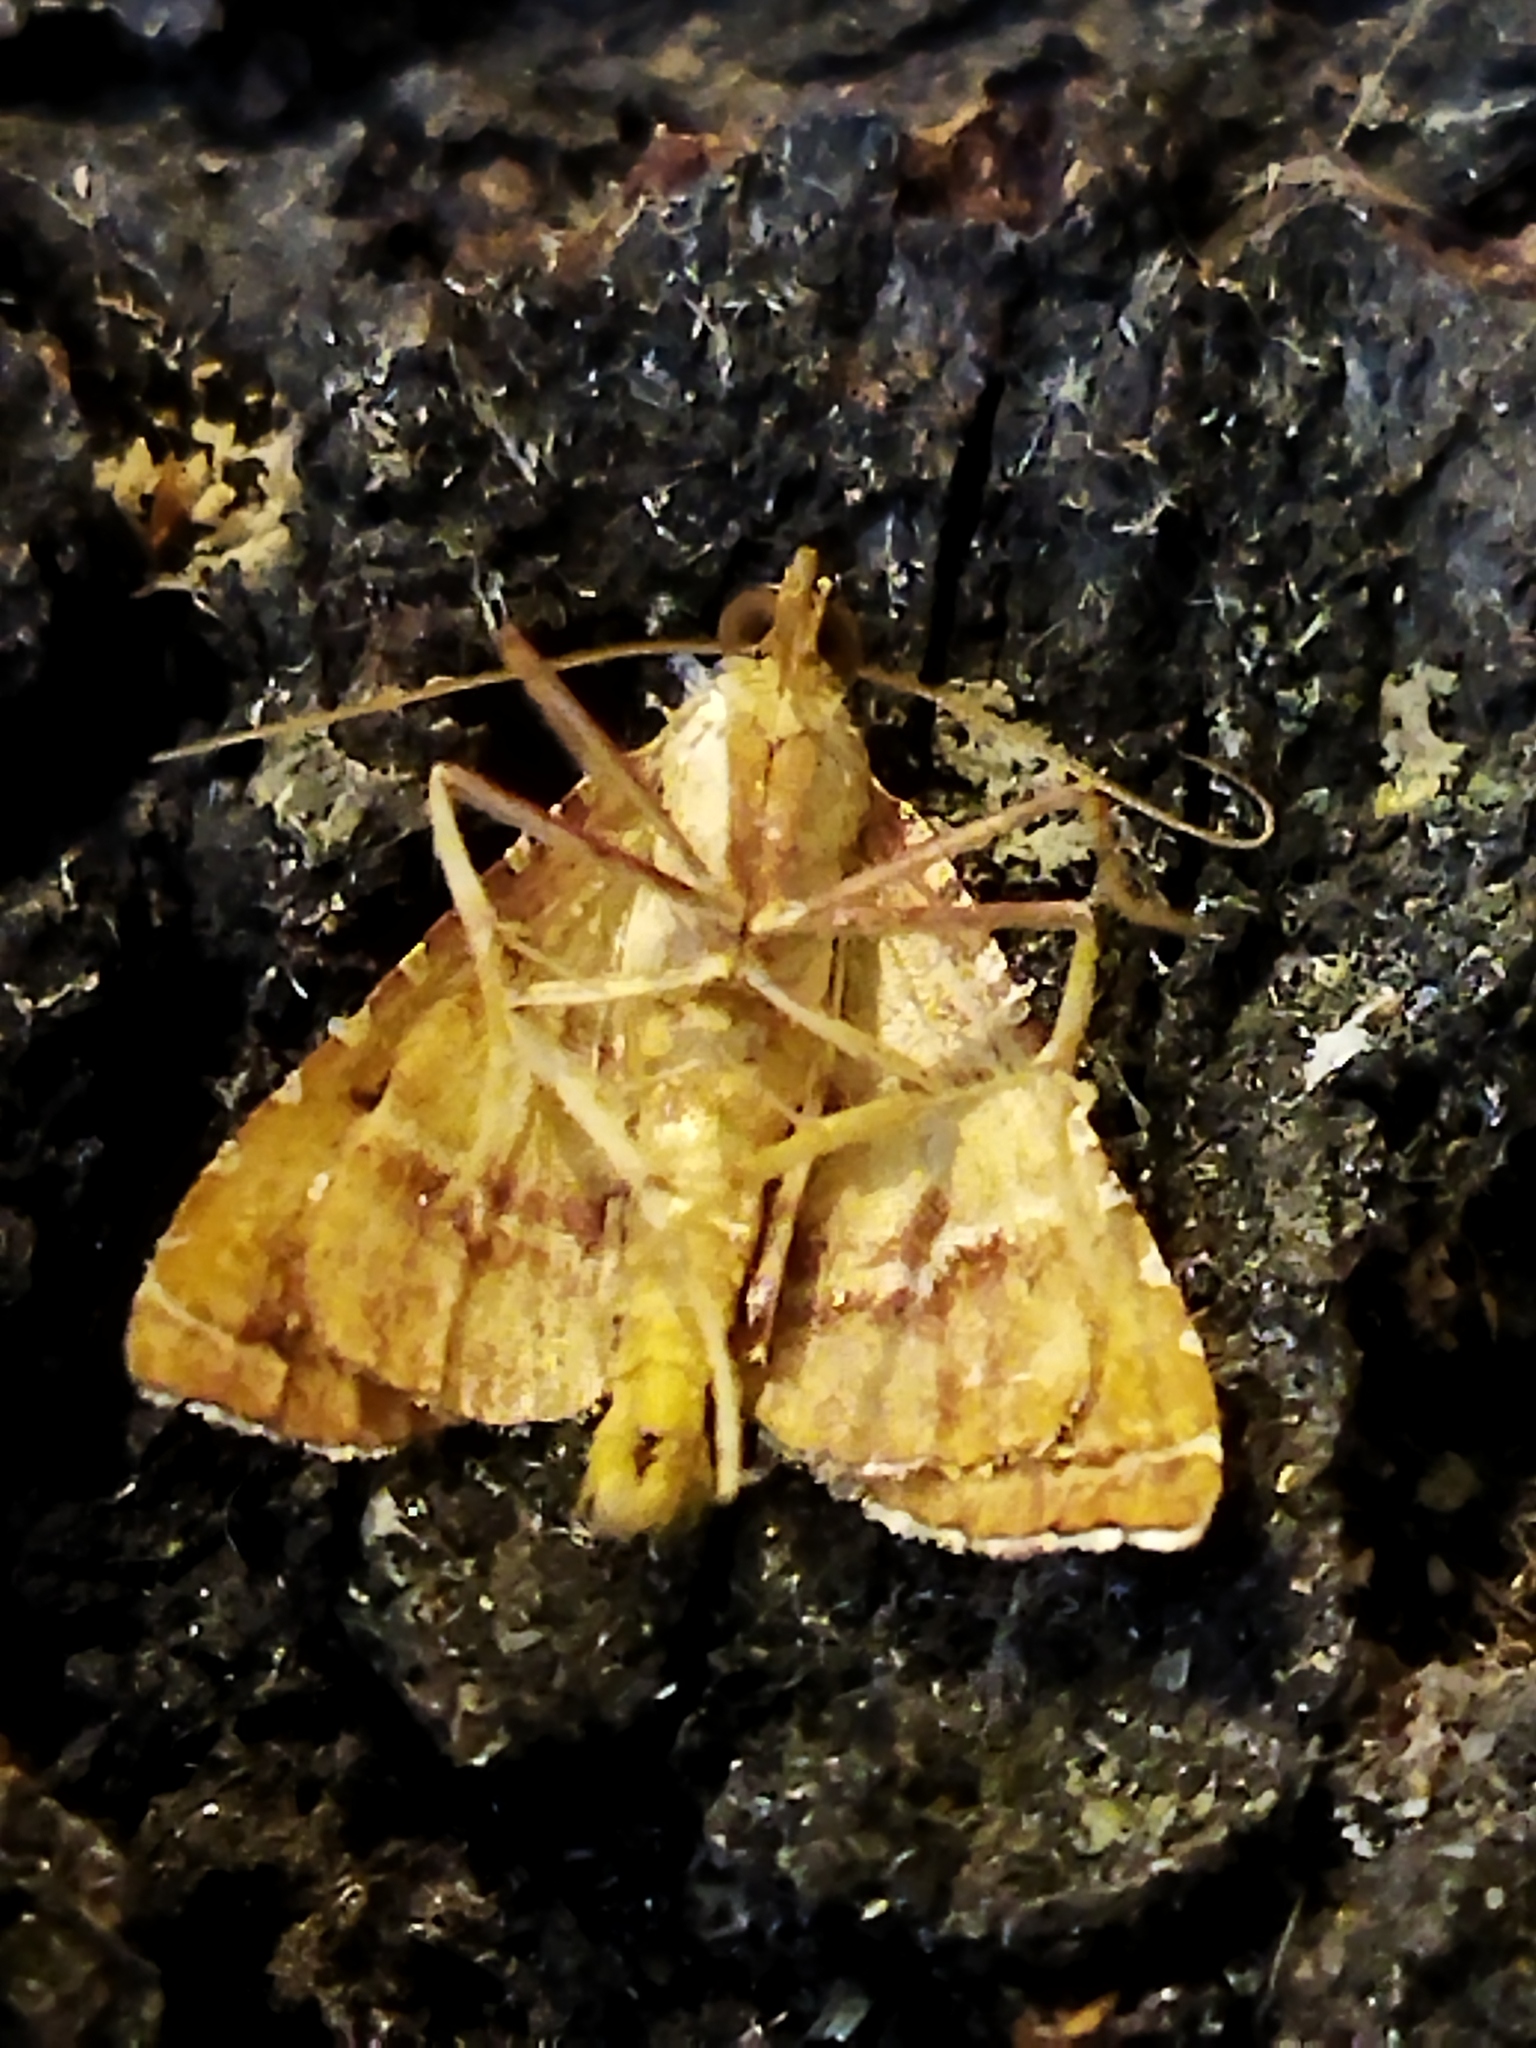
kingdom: Animalia
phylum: Arthropoda
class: Insecta
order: Lepidoptera
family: Pyralidae
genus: Endotricha
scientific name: Endotricha flammealis
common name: Rosy tabby
